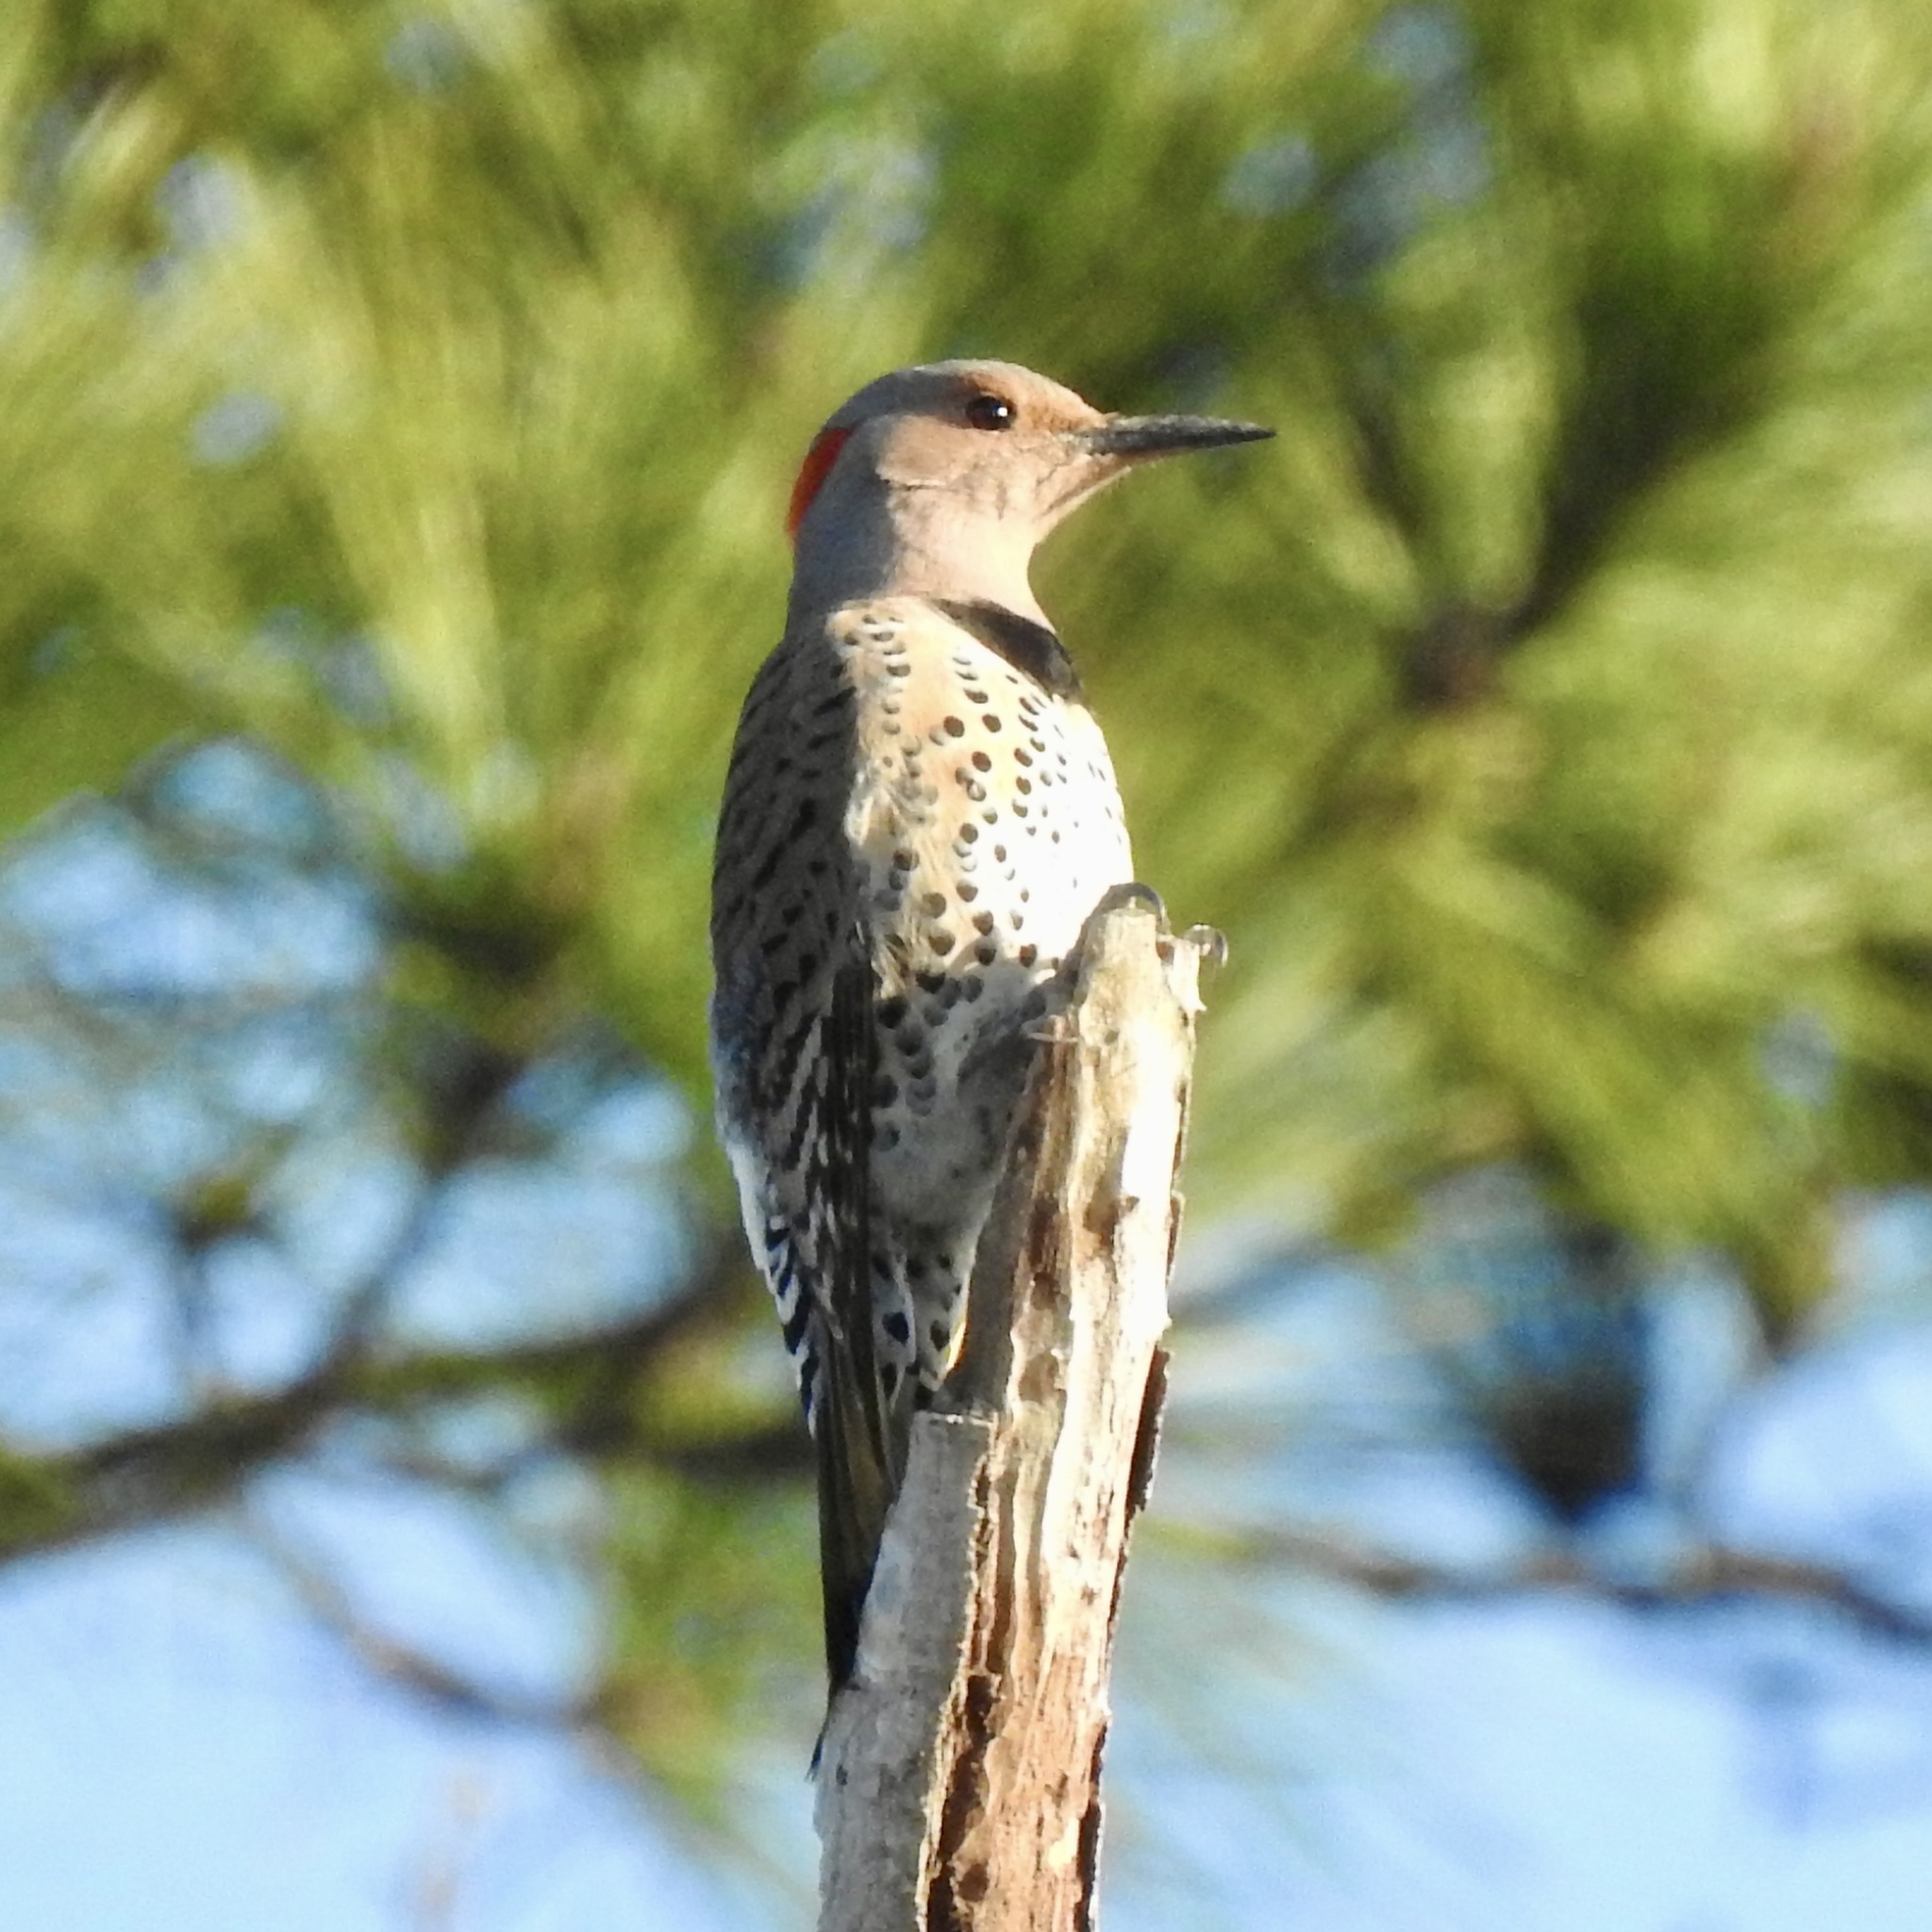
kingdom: Animalia
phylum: Chordata
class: Aves
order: Piciformes
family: Picidae
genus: Colaptes
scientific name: Colaptes auratus
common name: Northern flicker
